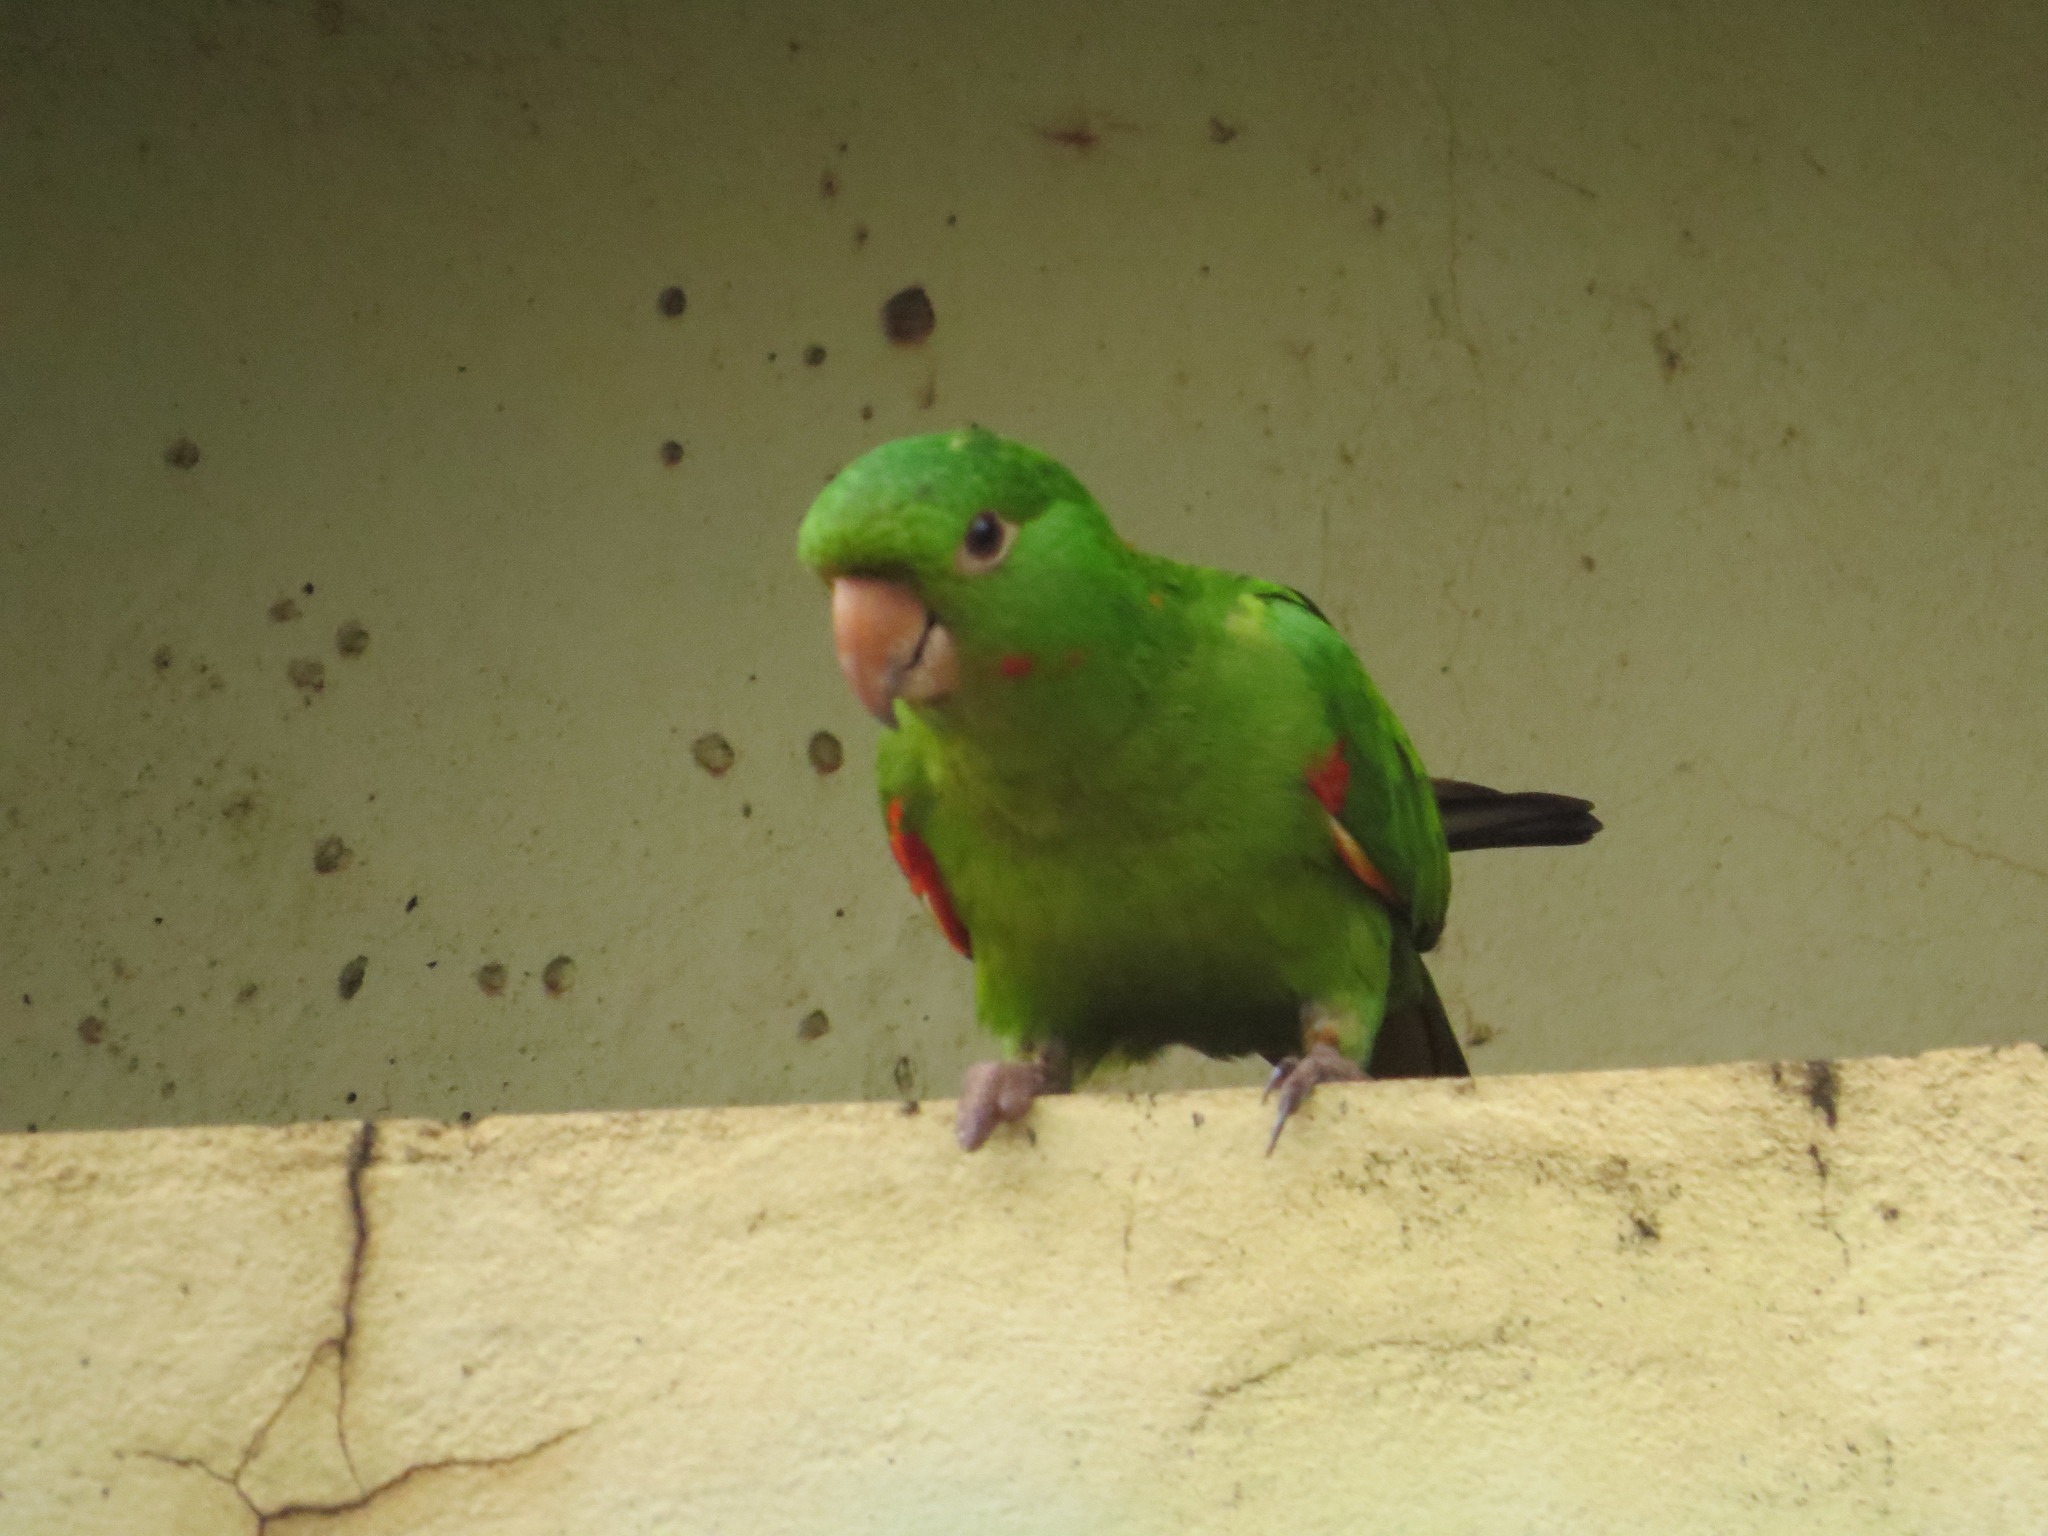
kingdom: Animalia
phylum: Chordata
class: Aves
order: Psittaciformes
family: Psittacidae
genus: Aratinga
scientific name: Aratinga leucophthalma
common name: White-eyed parakeet
